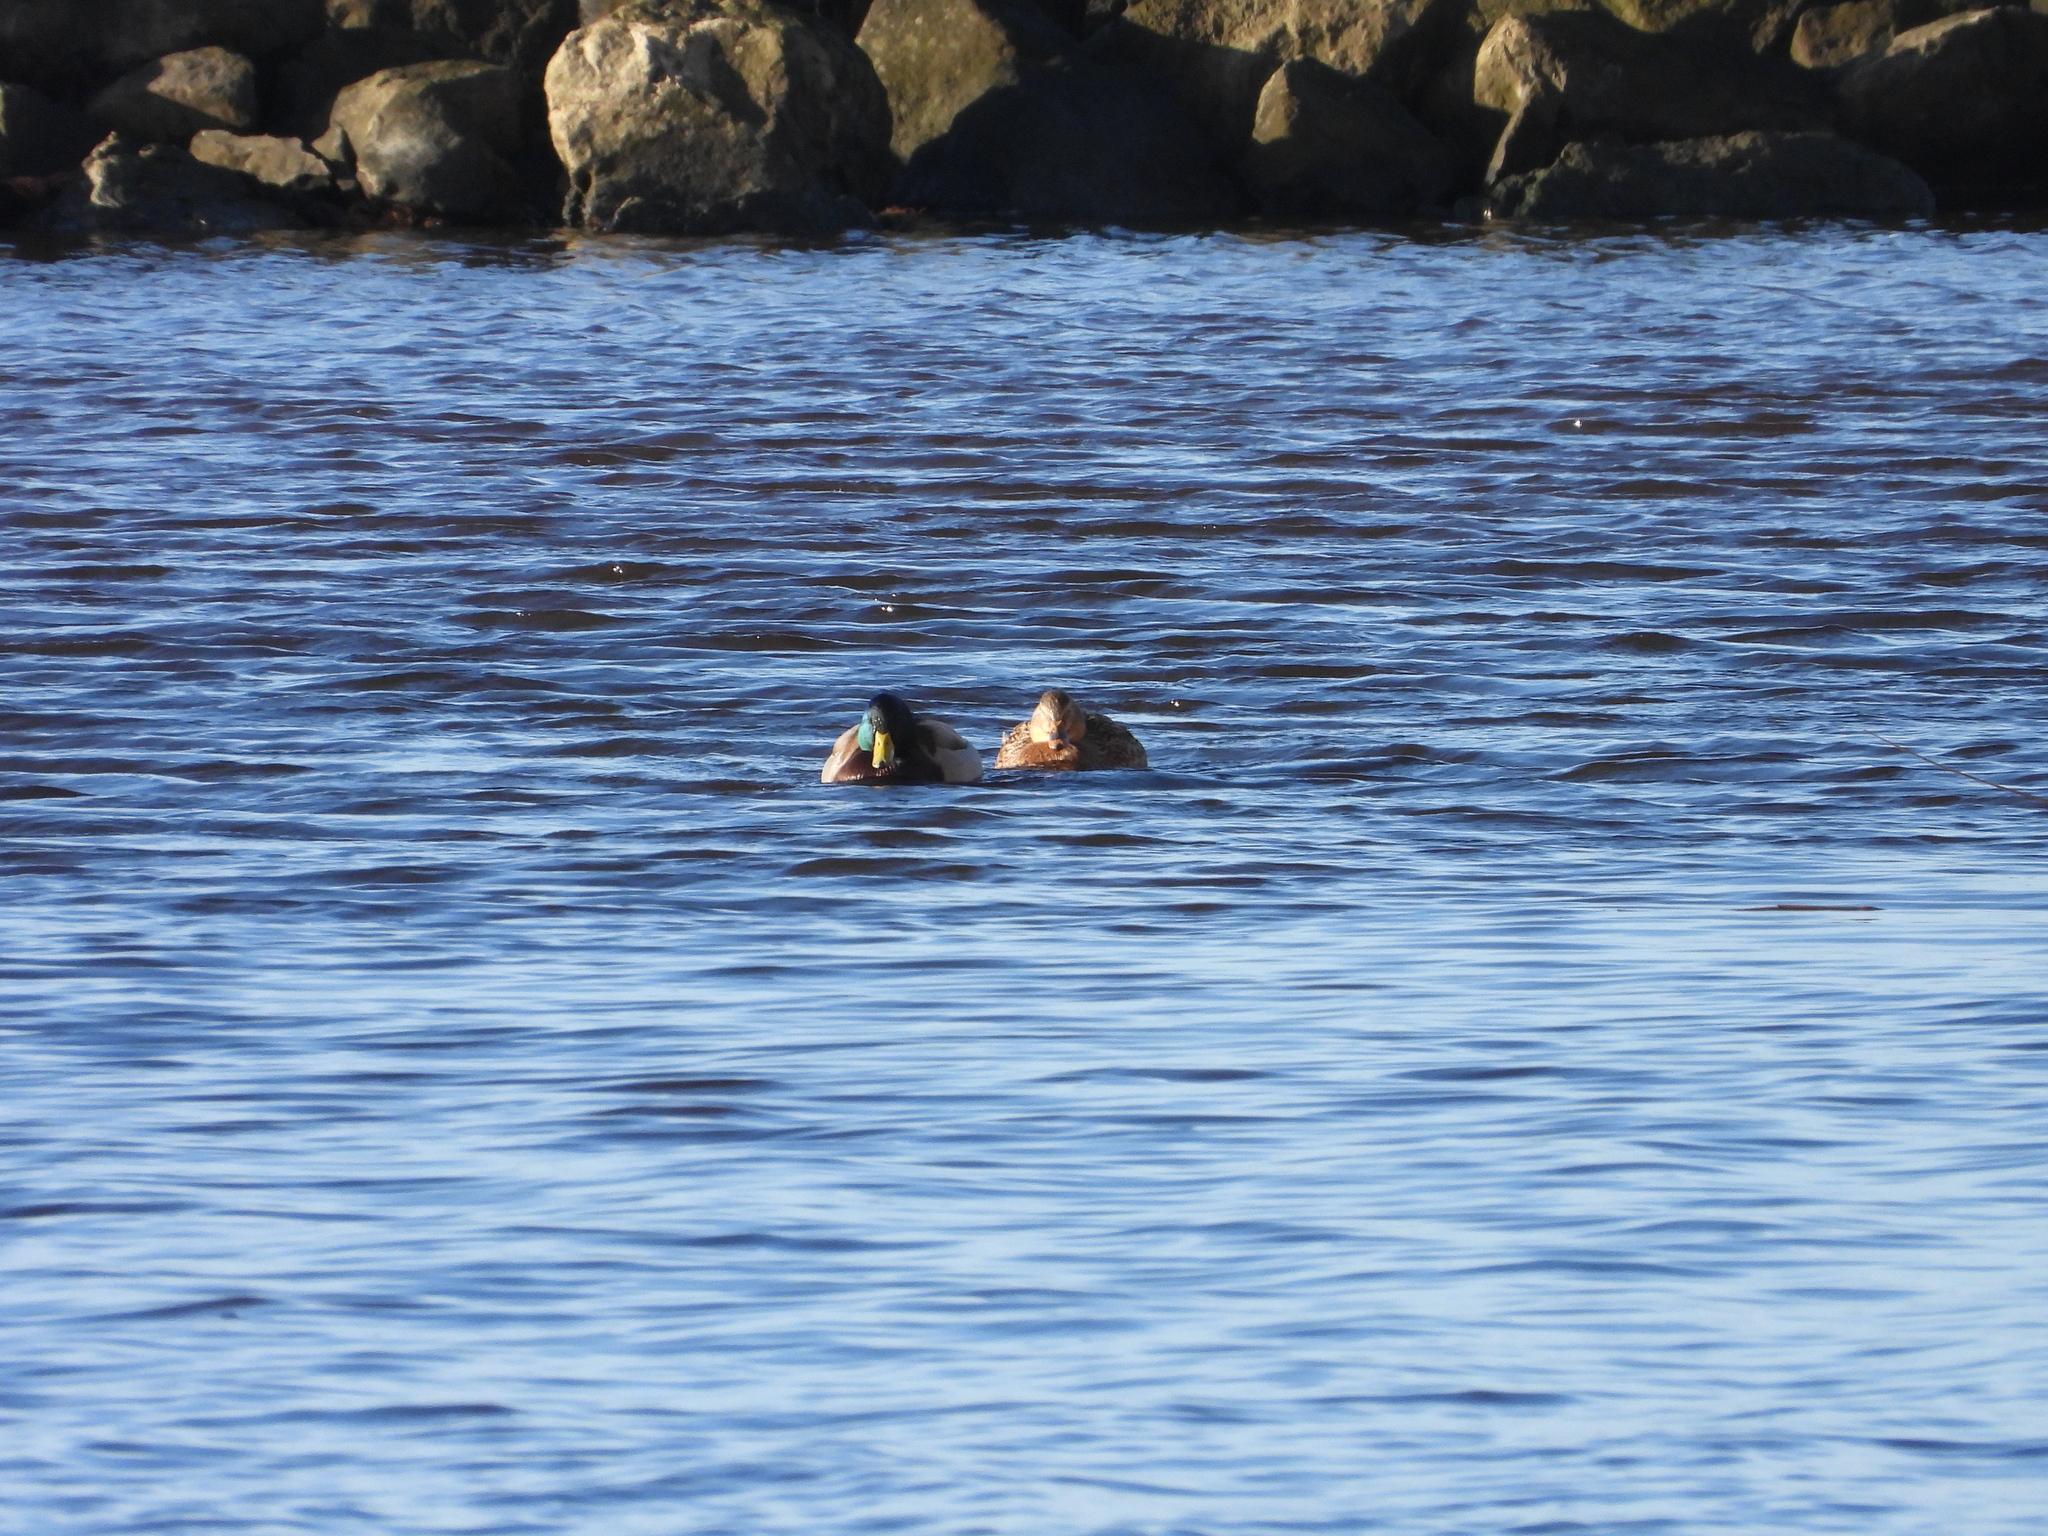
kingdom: Animalia
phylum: Chordata
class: Aves
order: Anseriformes
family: Anatidae
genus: Anas
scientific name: Anas platyrhynchos
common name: Mallard
